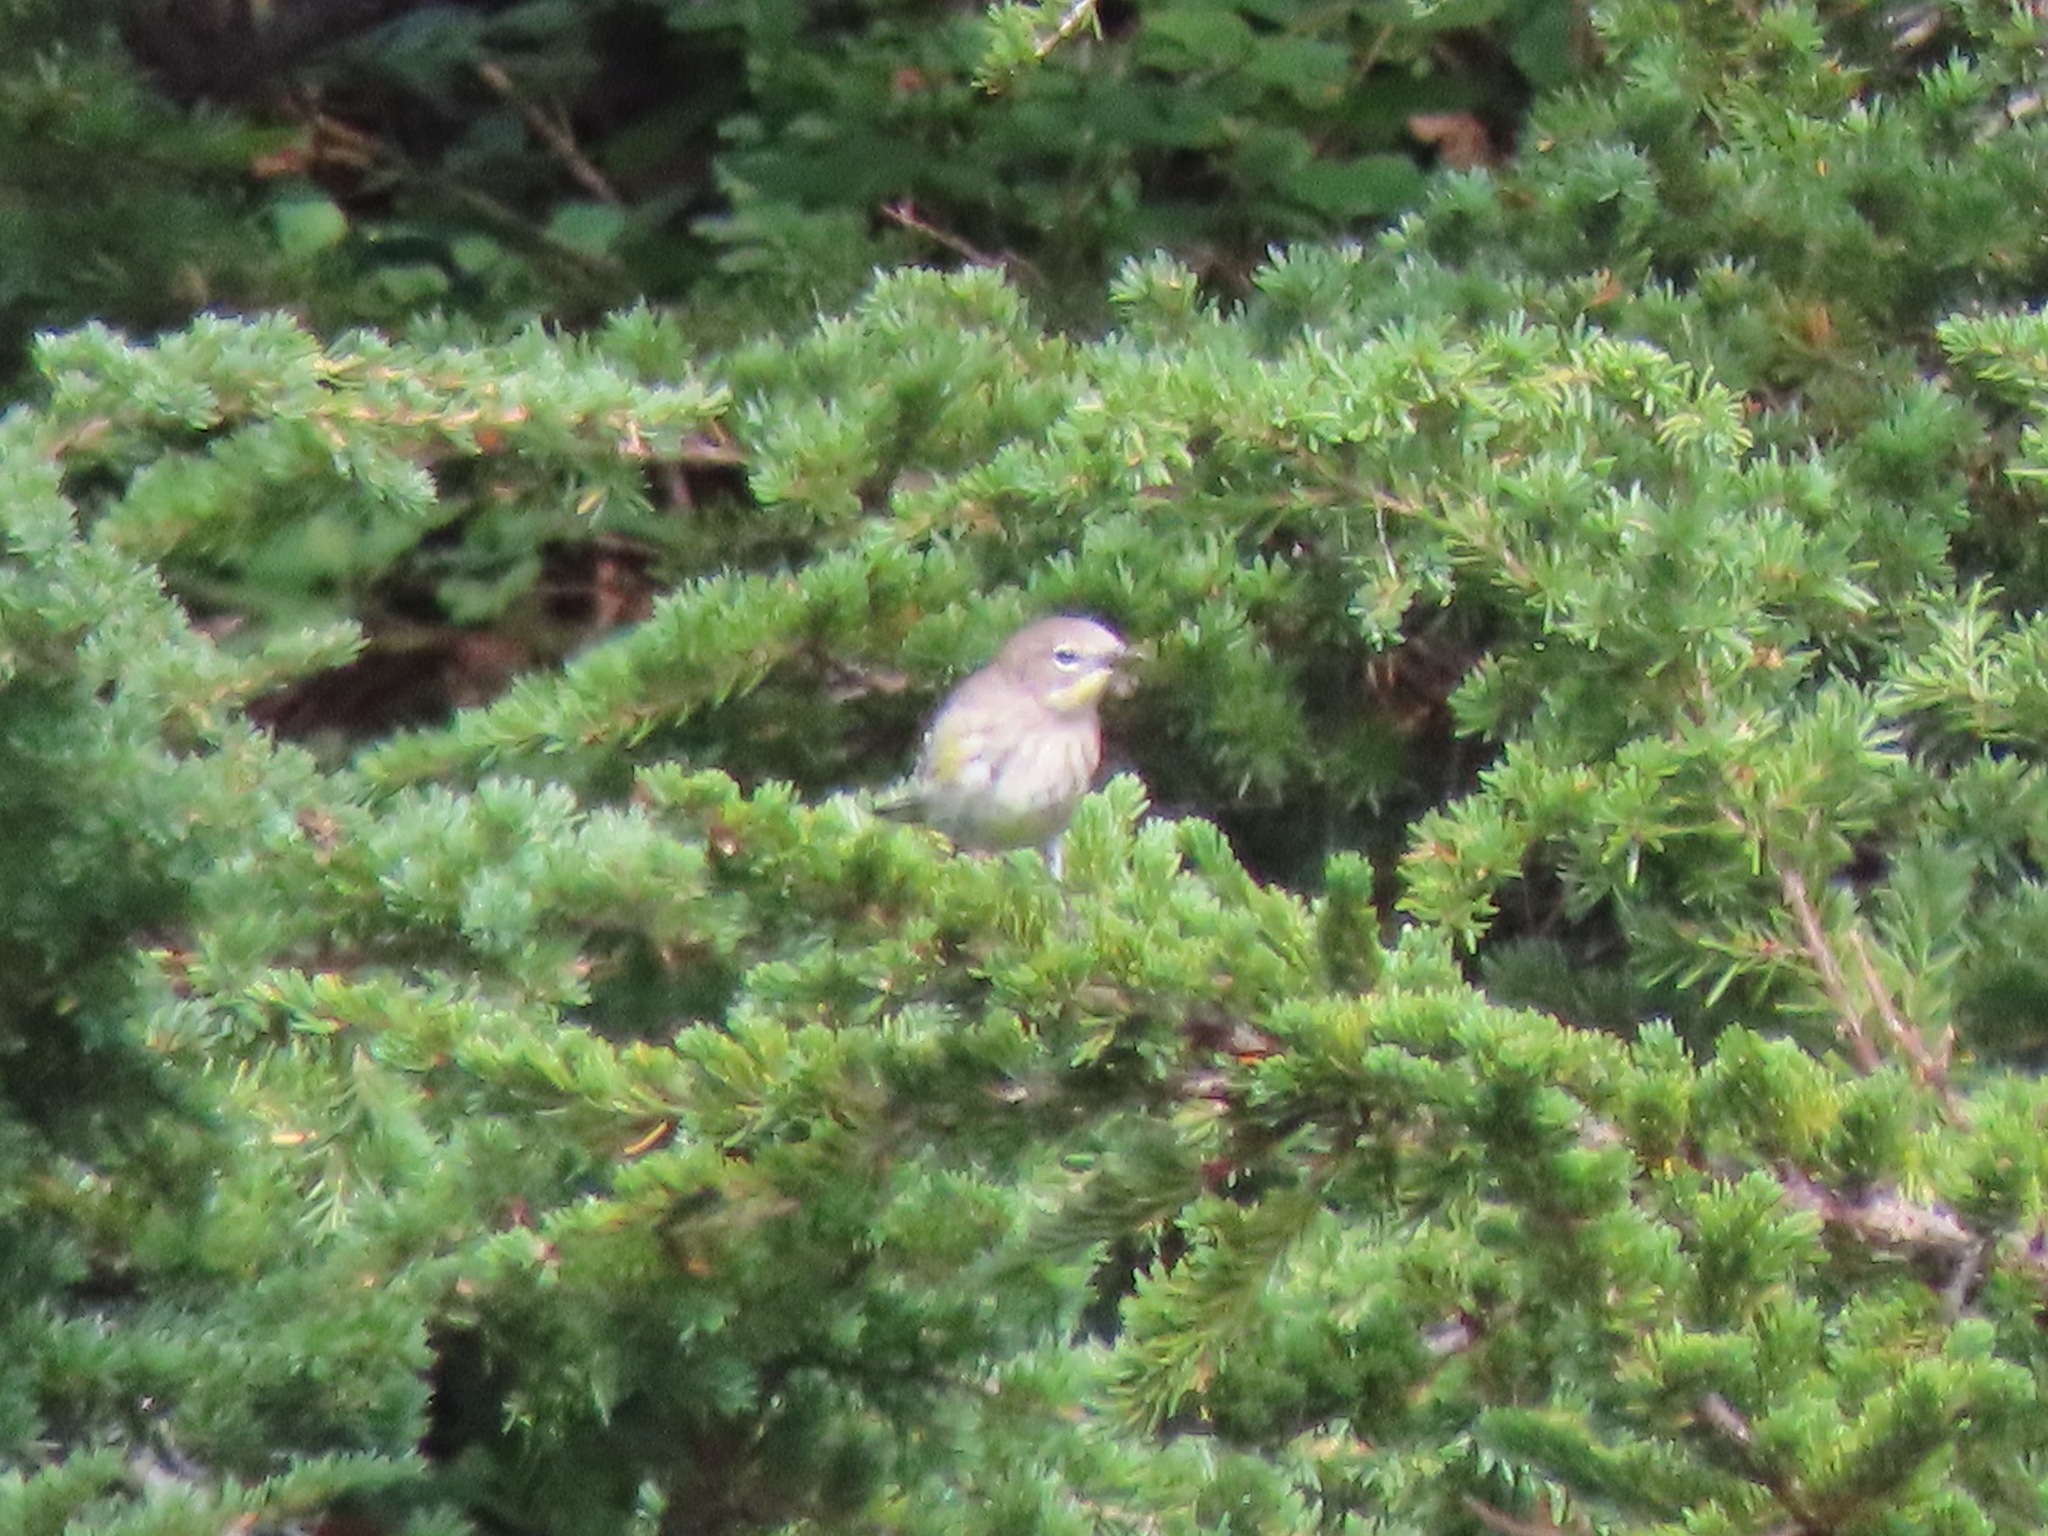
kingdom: Animalia
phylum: Chordata
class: Aves
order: Passeriformes
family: Parulidae
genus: Setophaga
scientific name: Setophaga coronata
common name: Myrtle warbler
